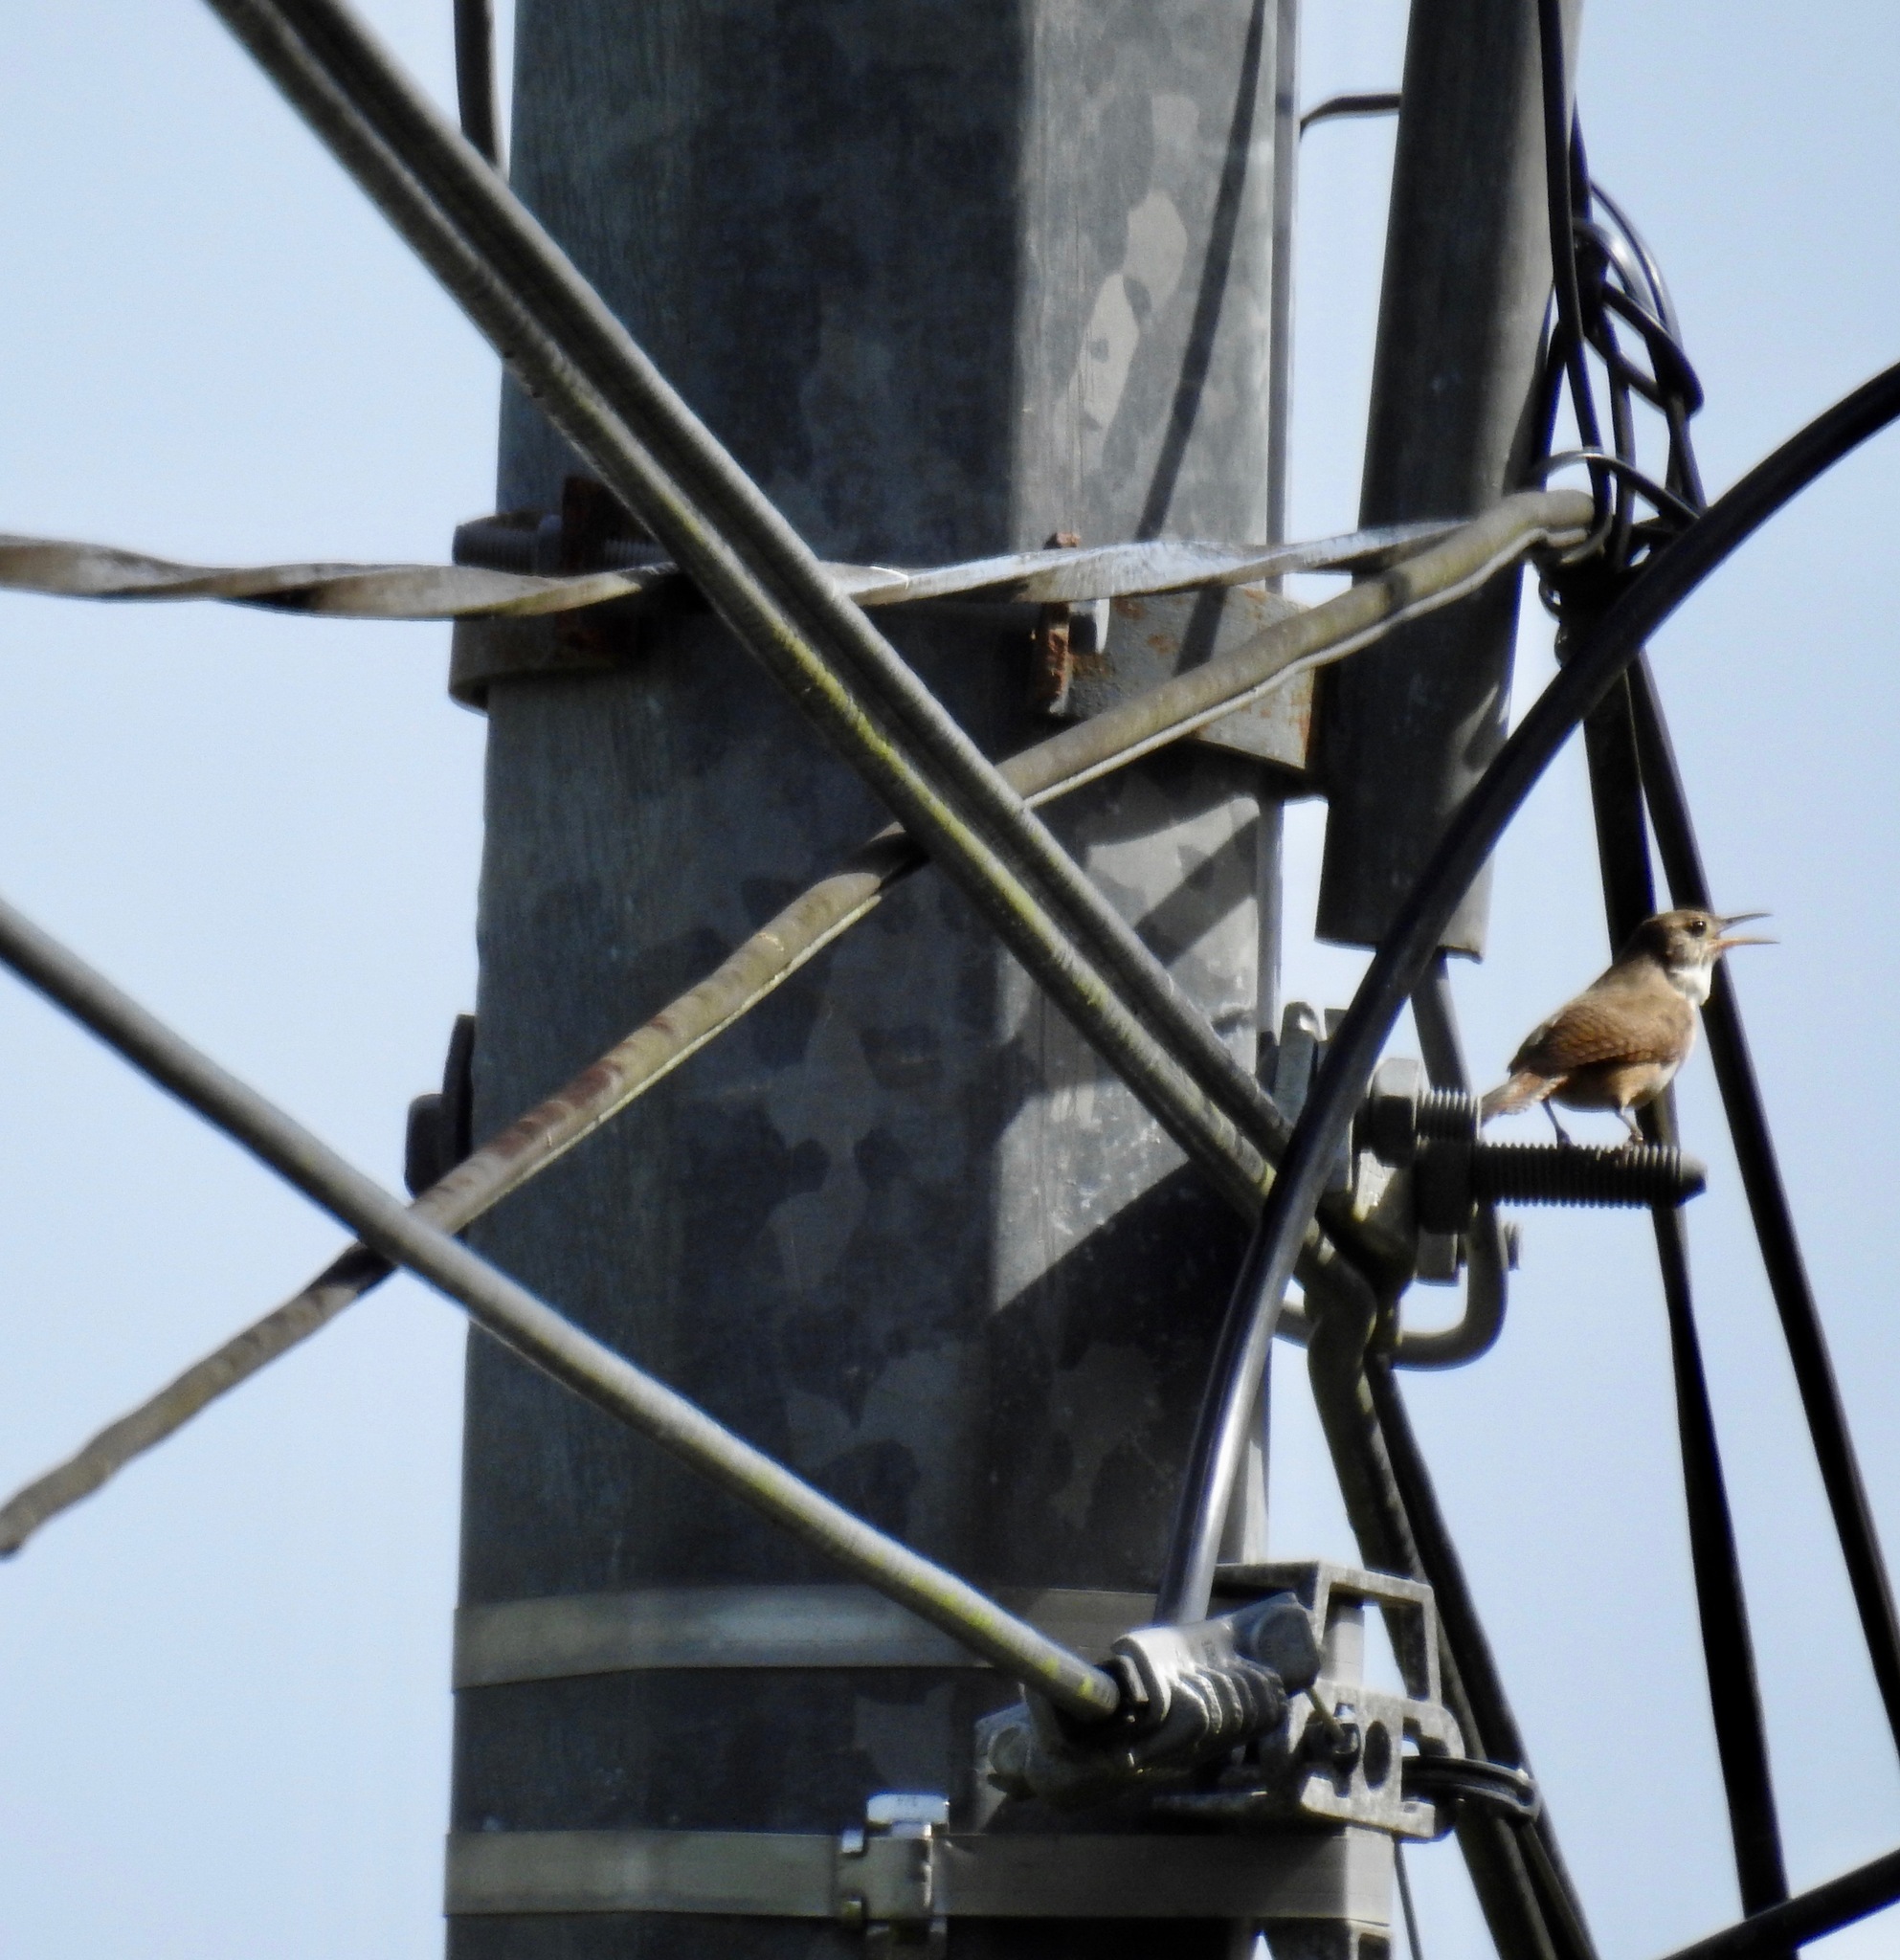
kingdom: Animalia
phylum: Chordata
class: Aves
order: Passeriformes
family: Troglodytidae
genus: Troglodytes
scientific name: Troglodytes aedon
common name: House wren
